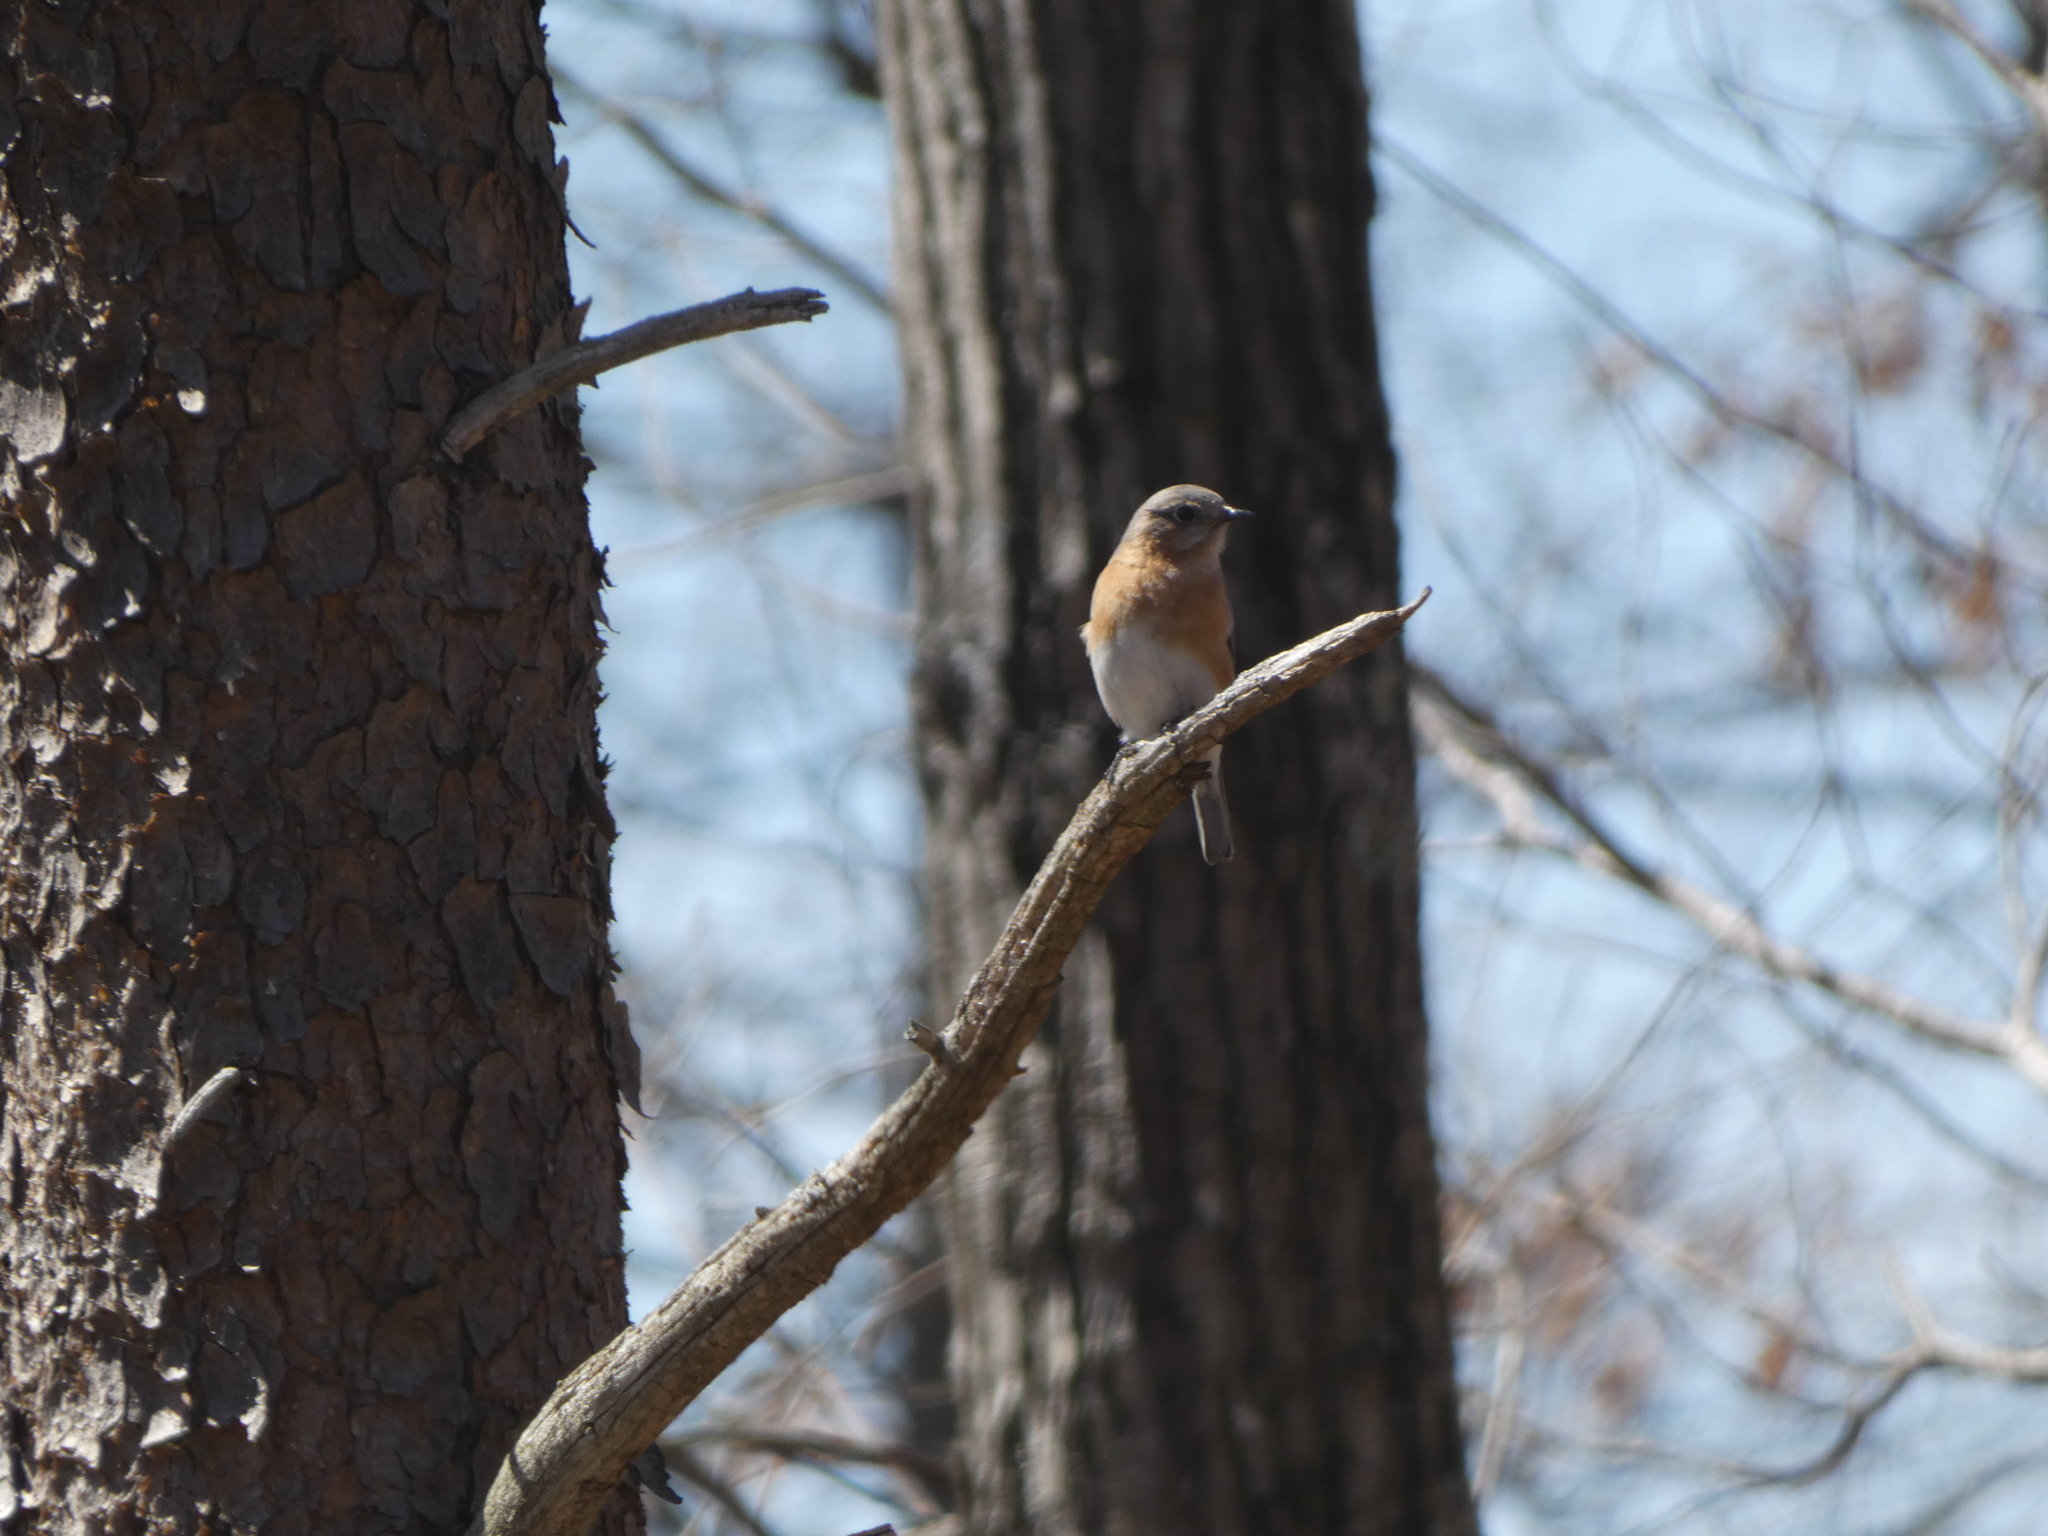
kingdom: Animalia
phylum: Chordata
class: Aves
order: Passeriformes
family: Turdidae
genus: Sialia
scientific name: Sialia sialis
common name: Eastern bluebird
